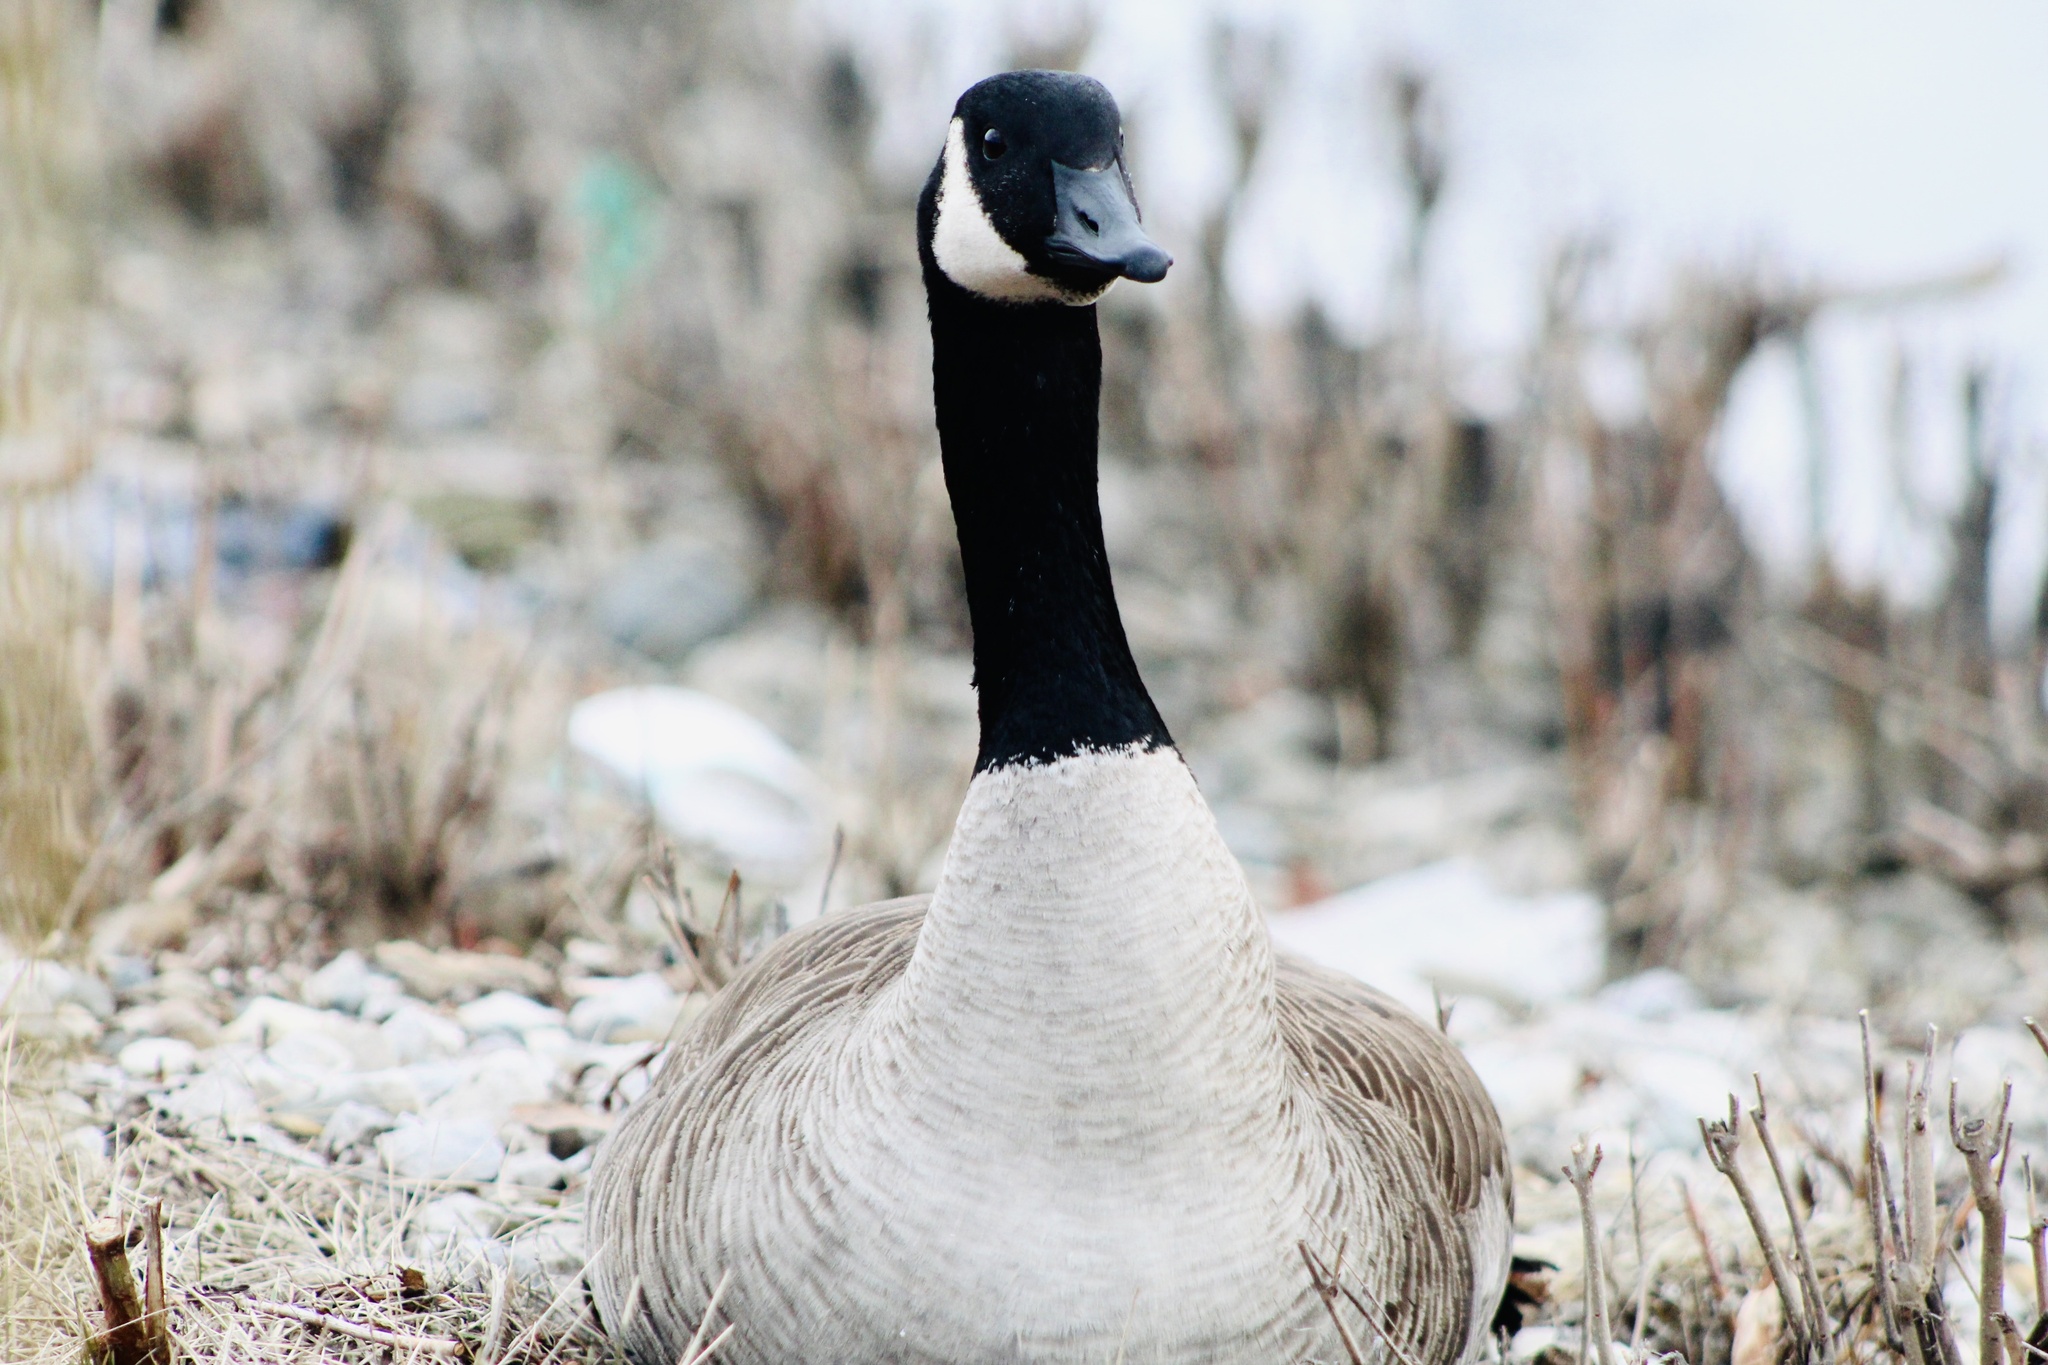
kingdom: Animalia
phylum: Chordata
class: Aves
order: Anseriformes
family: Anatidae
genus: Branta
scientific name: Branta canadensis
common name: Canada goose
